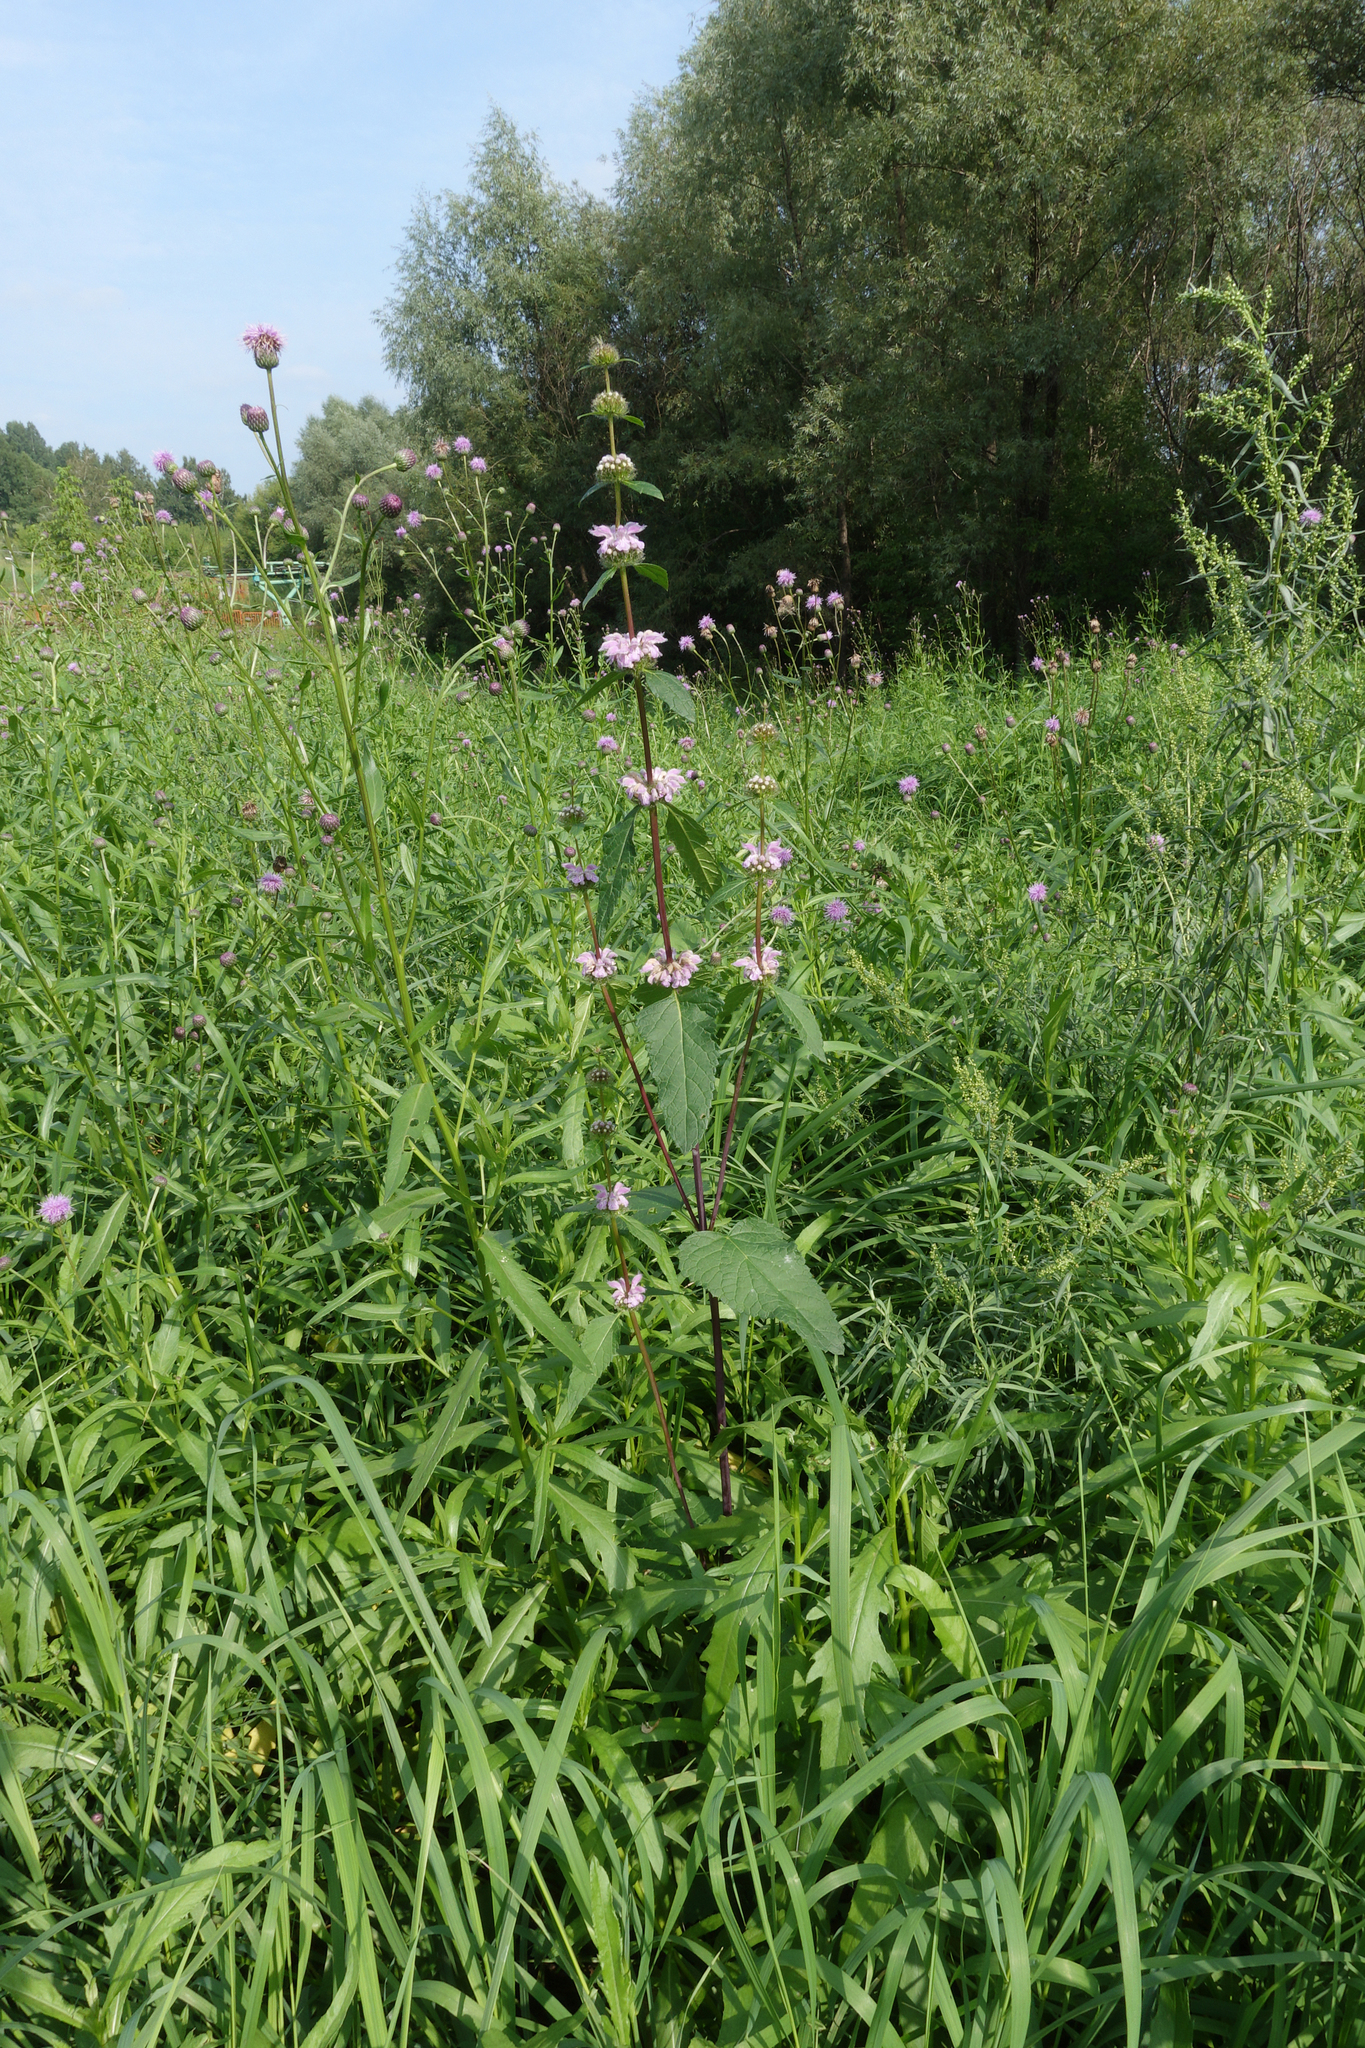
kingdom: Plantae
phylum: Tracheophyta
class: Magnoliopsida
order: Lamiales
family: Lamiaceae
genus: Phlomoides
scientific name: Phlomoides tuberosa
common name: Tuberous jerusalem sage
